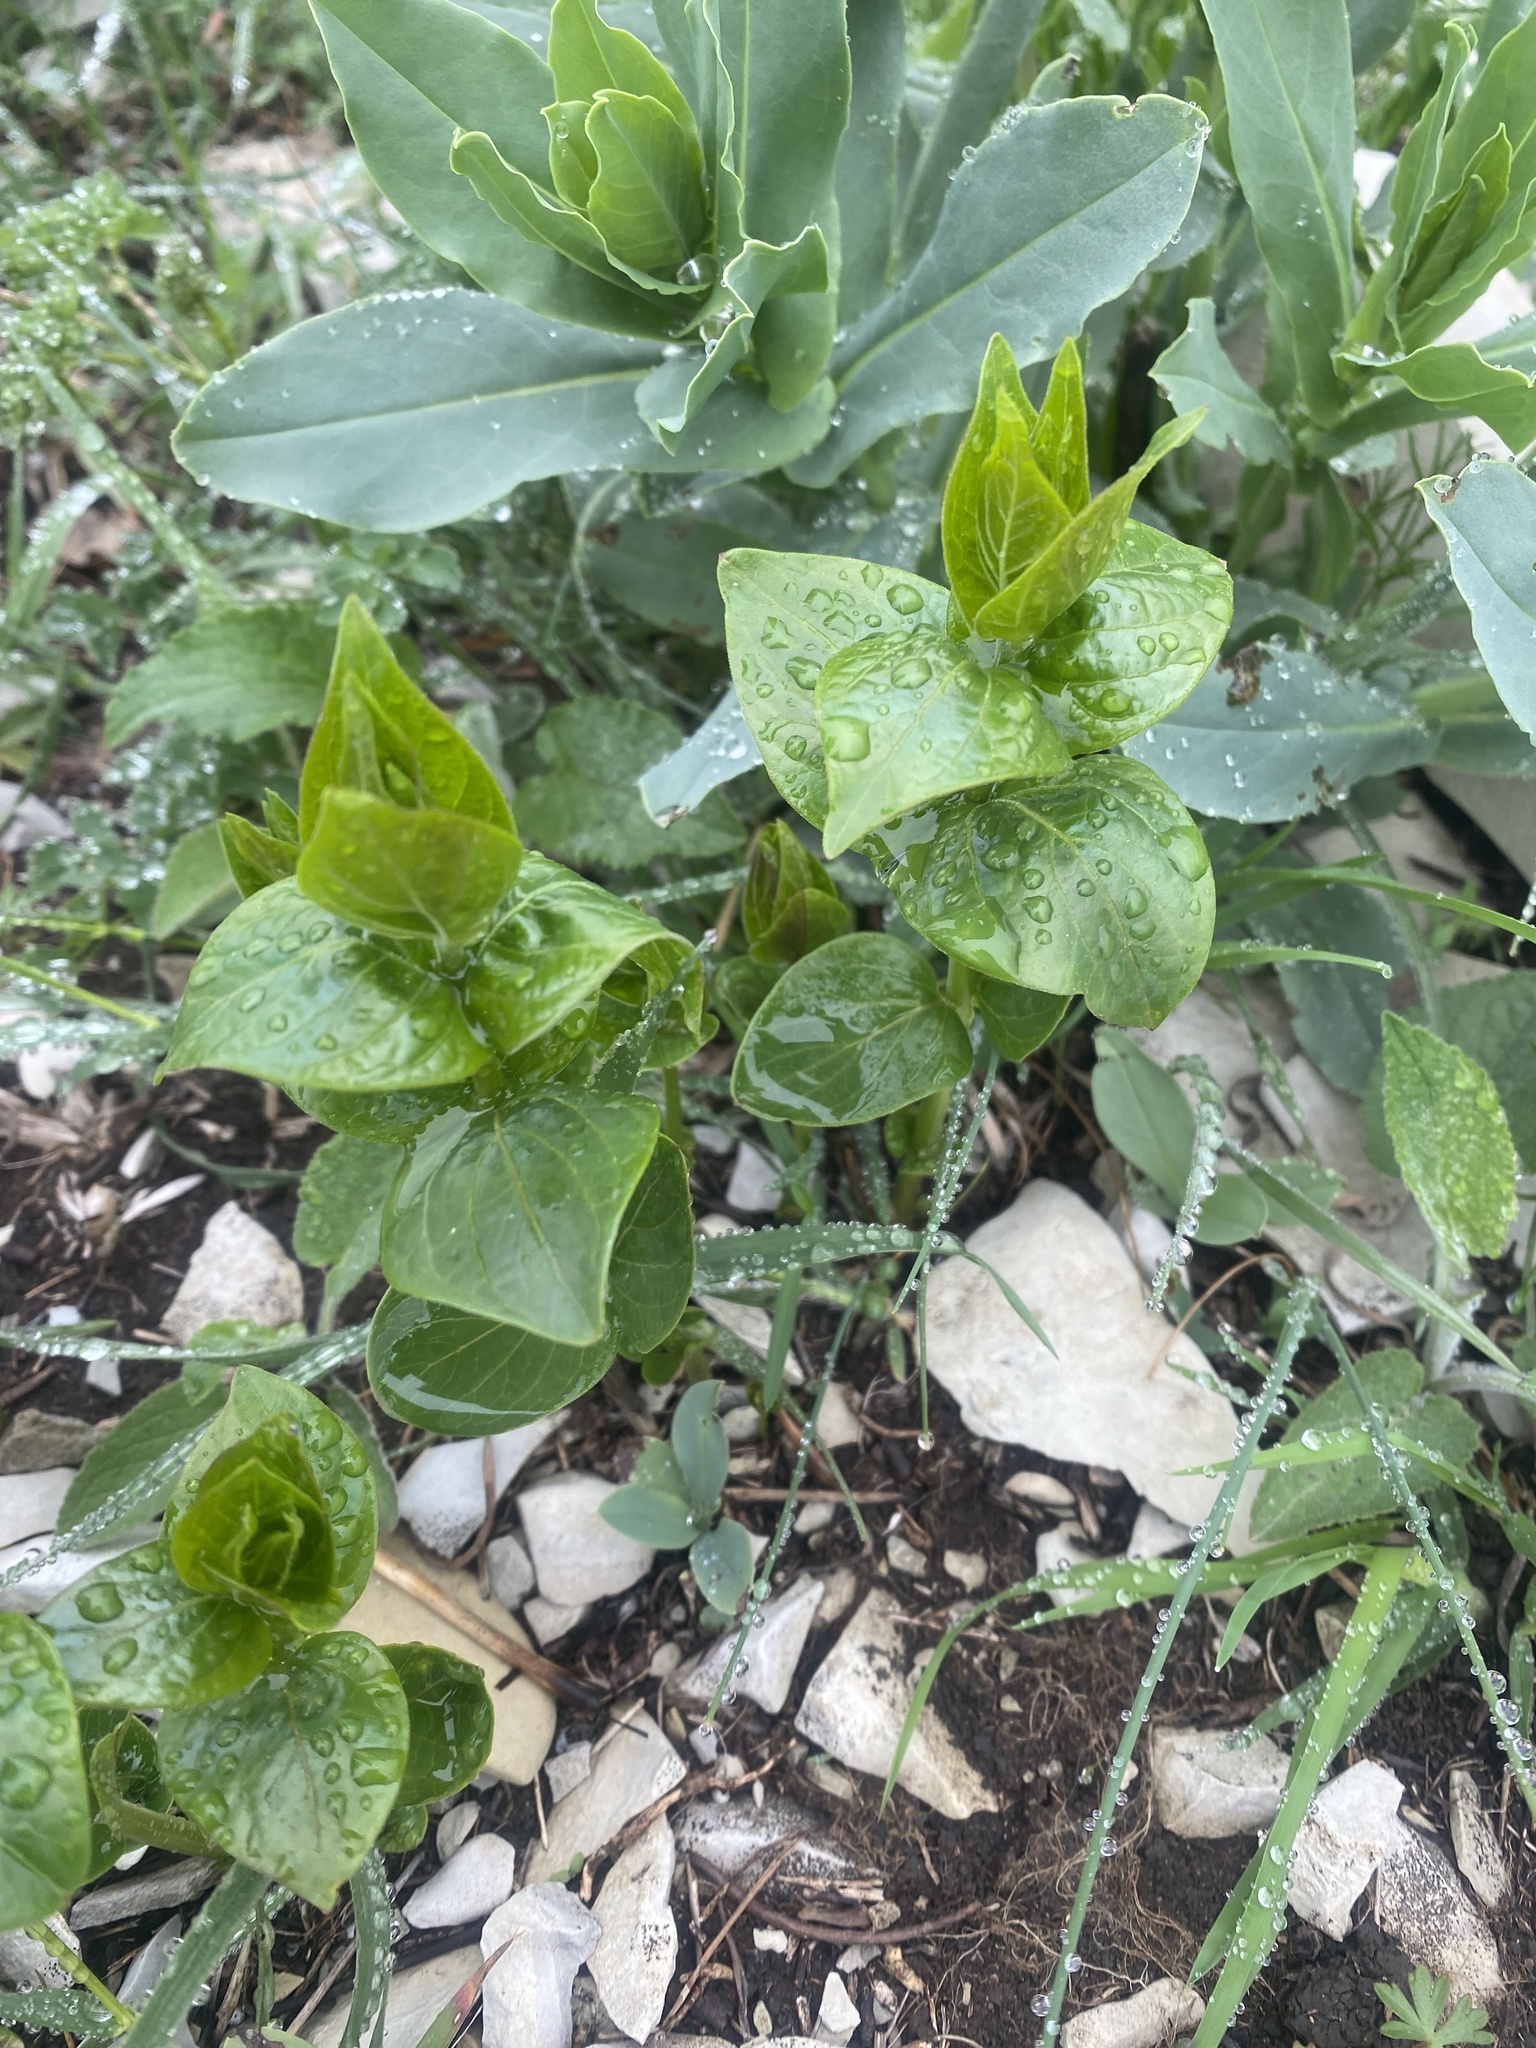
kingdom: Plantae
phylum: Tracheophyta
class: Magnoliopsida
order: Gentianales
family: Apocynaceae
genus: Vinca
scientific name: Vinca major
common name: Greater periwinkle
